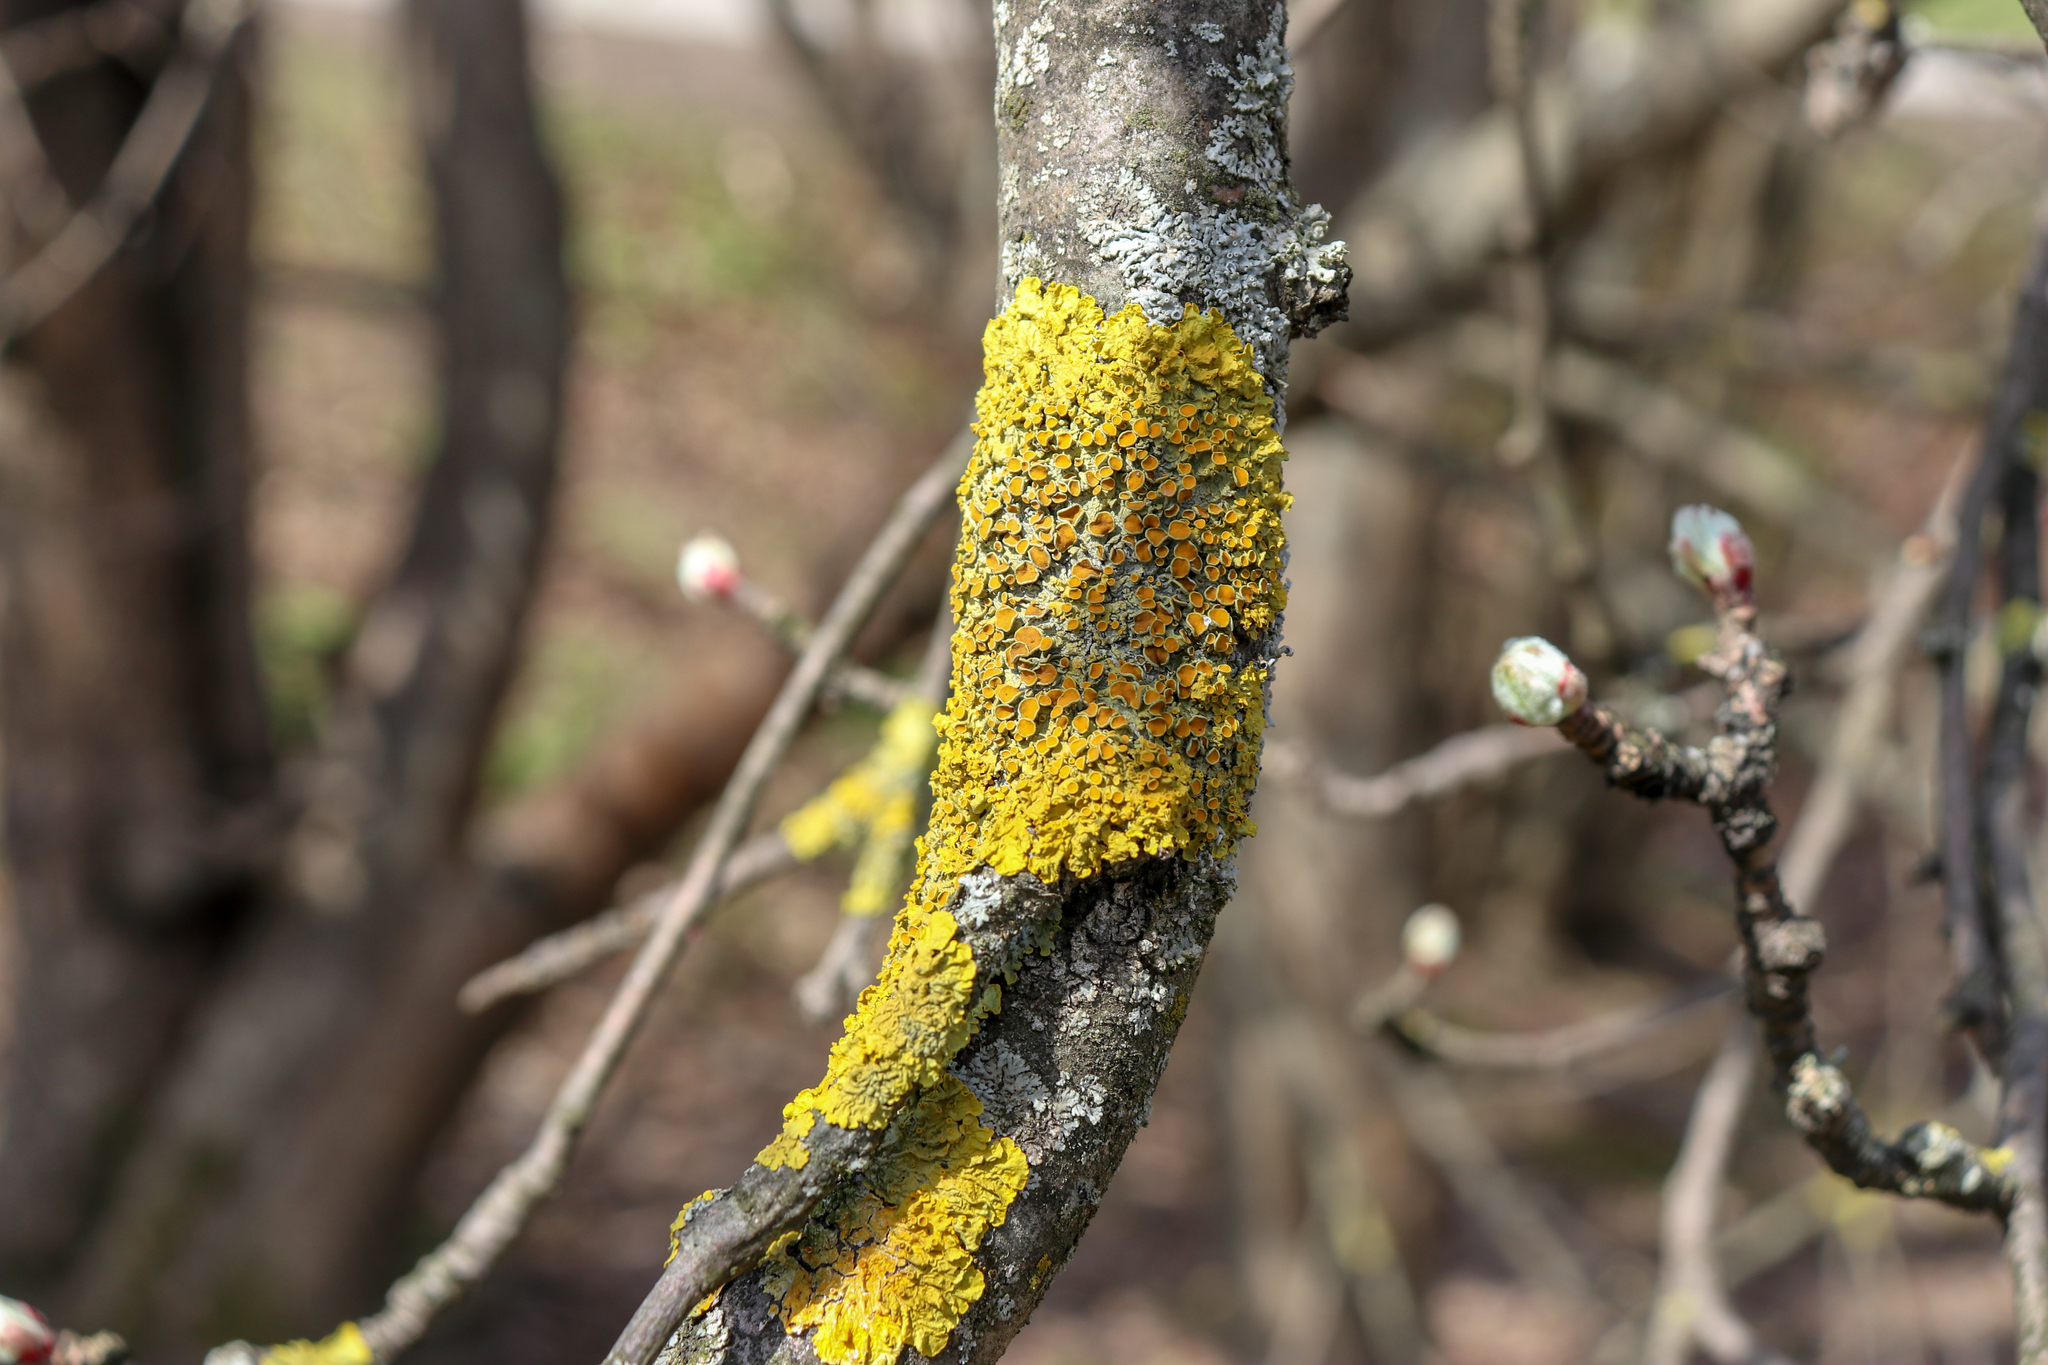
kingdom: Fungi
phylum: Ascomycota
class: Lecanoromycetes
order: Teloschistales
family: Teloschistaceae
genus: Xanthoria
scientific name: Xanthoria parietina
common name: Common orange lichen
